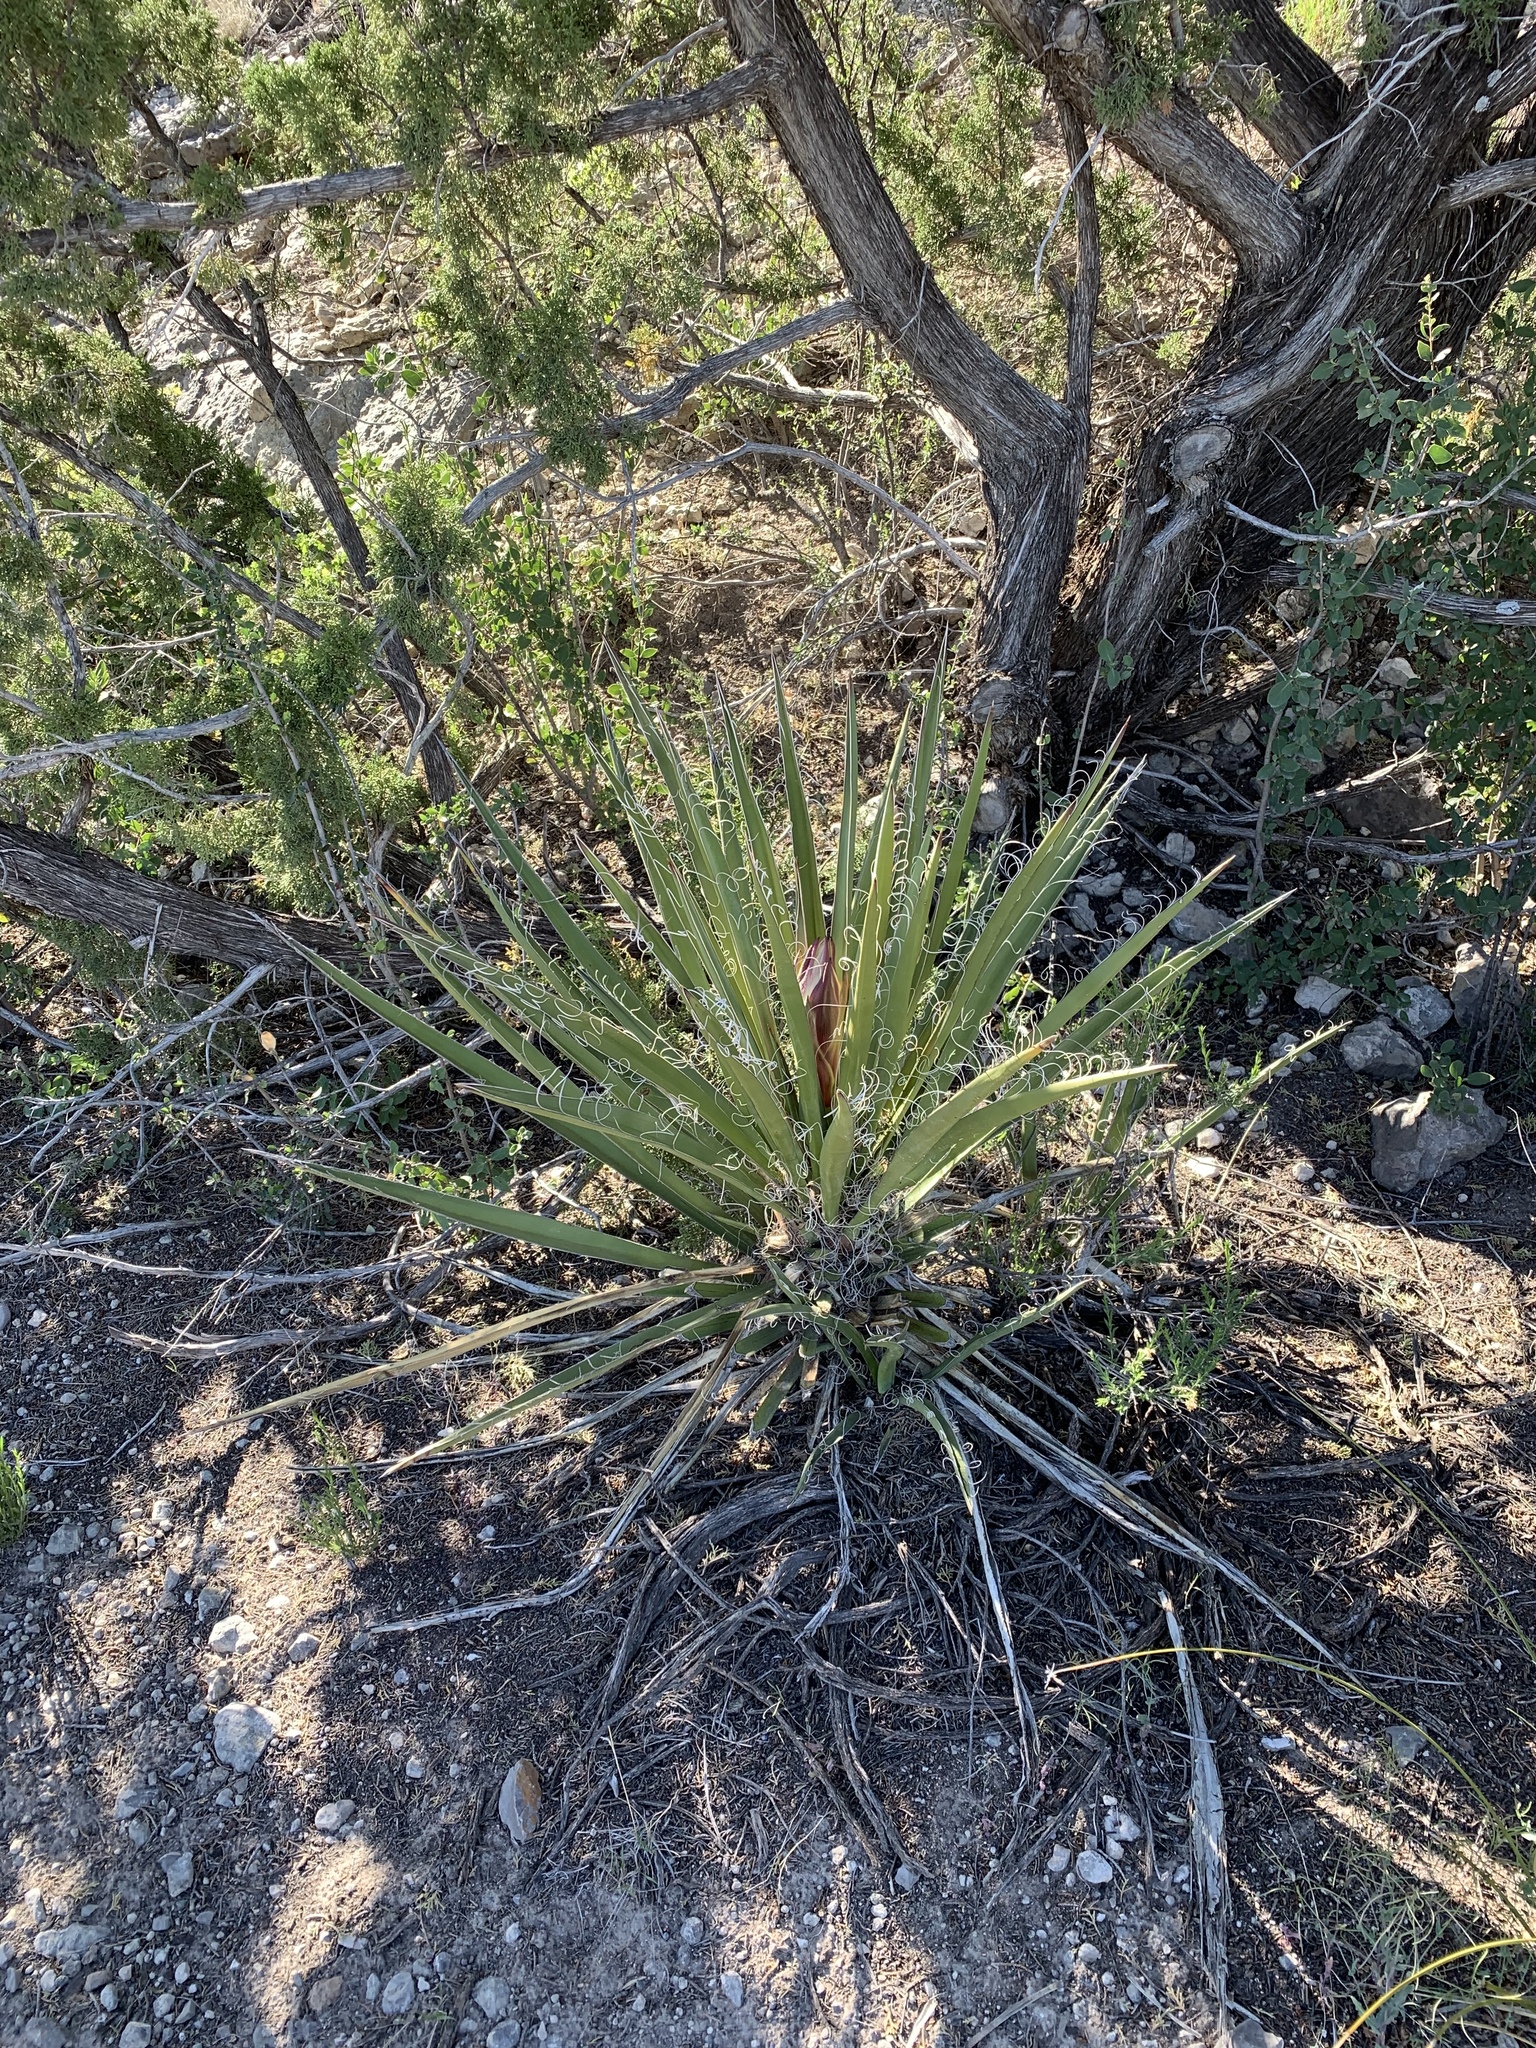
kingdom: Plantae
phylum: Tracheophyta
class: Liliopsida
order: Asparagales
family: Asparagaceae
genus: Yucca
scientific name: Yucca baccata
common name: Banana yucca
